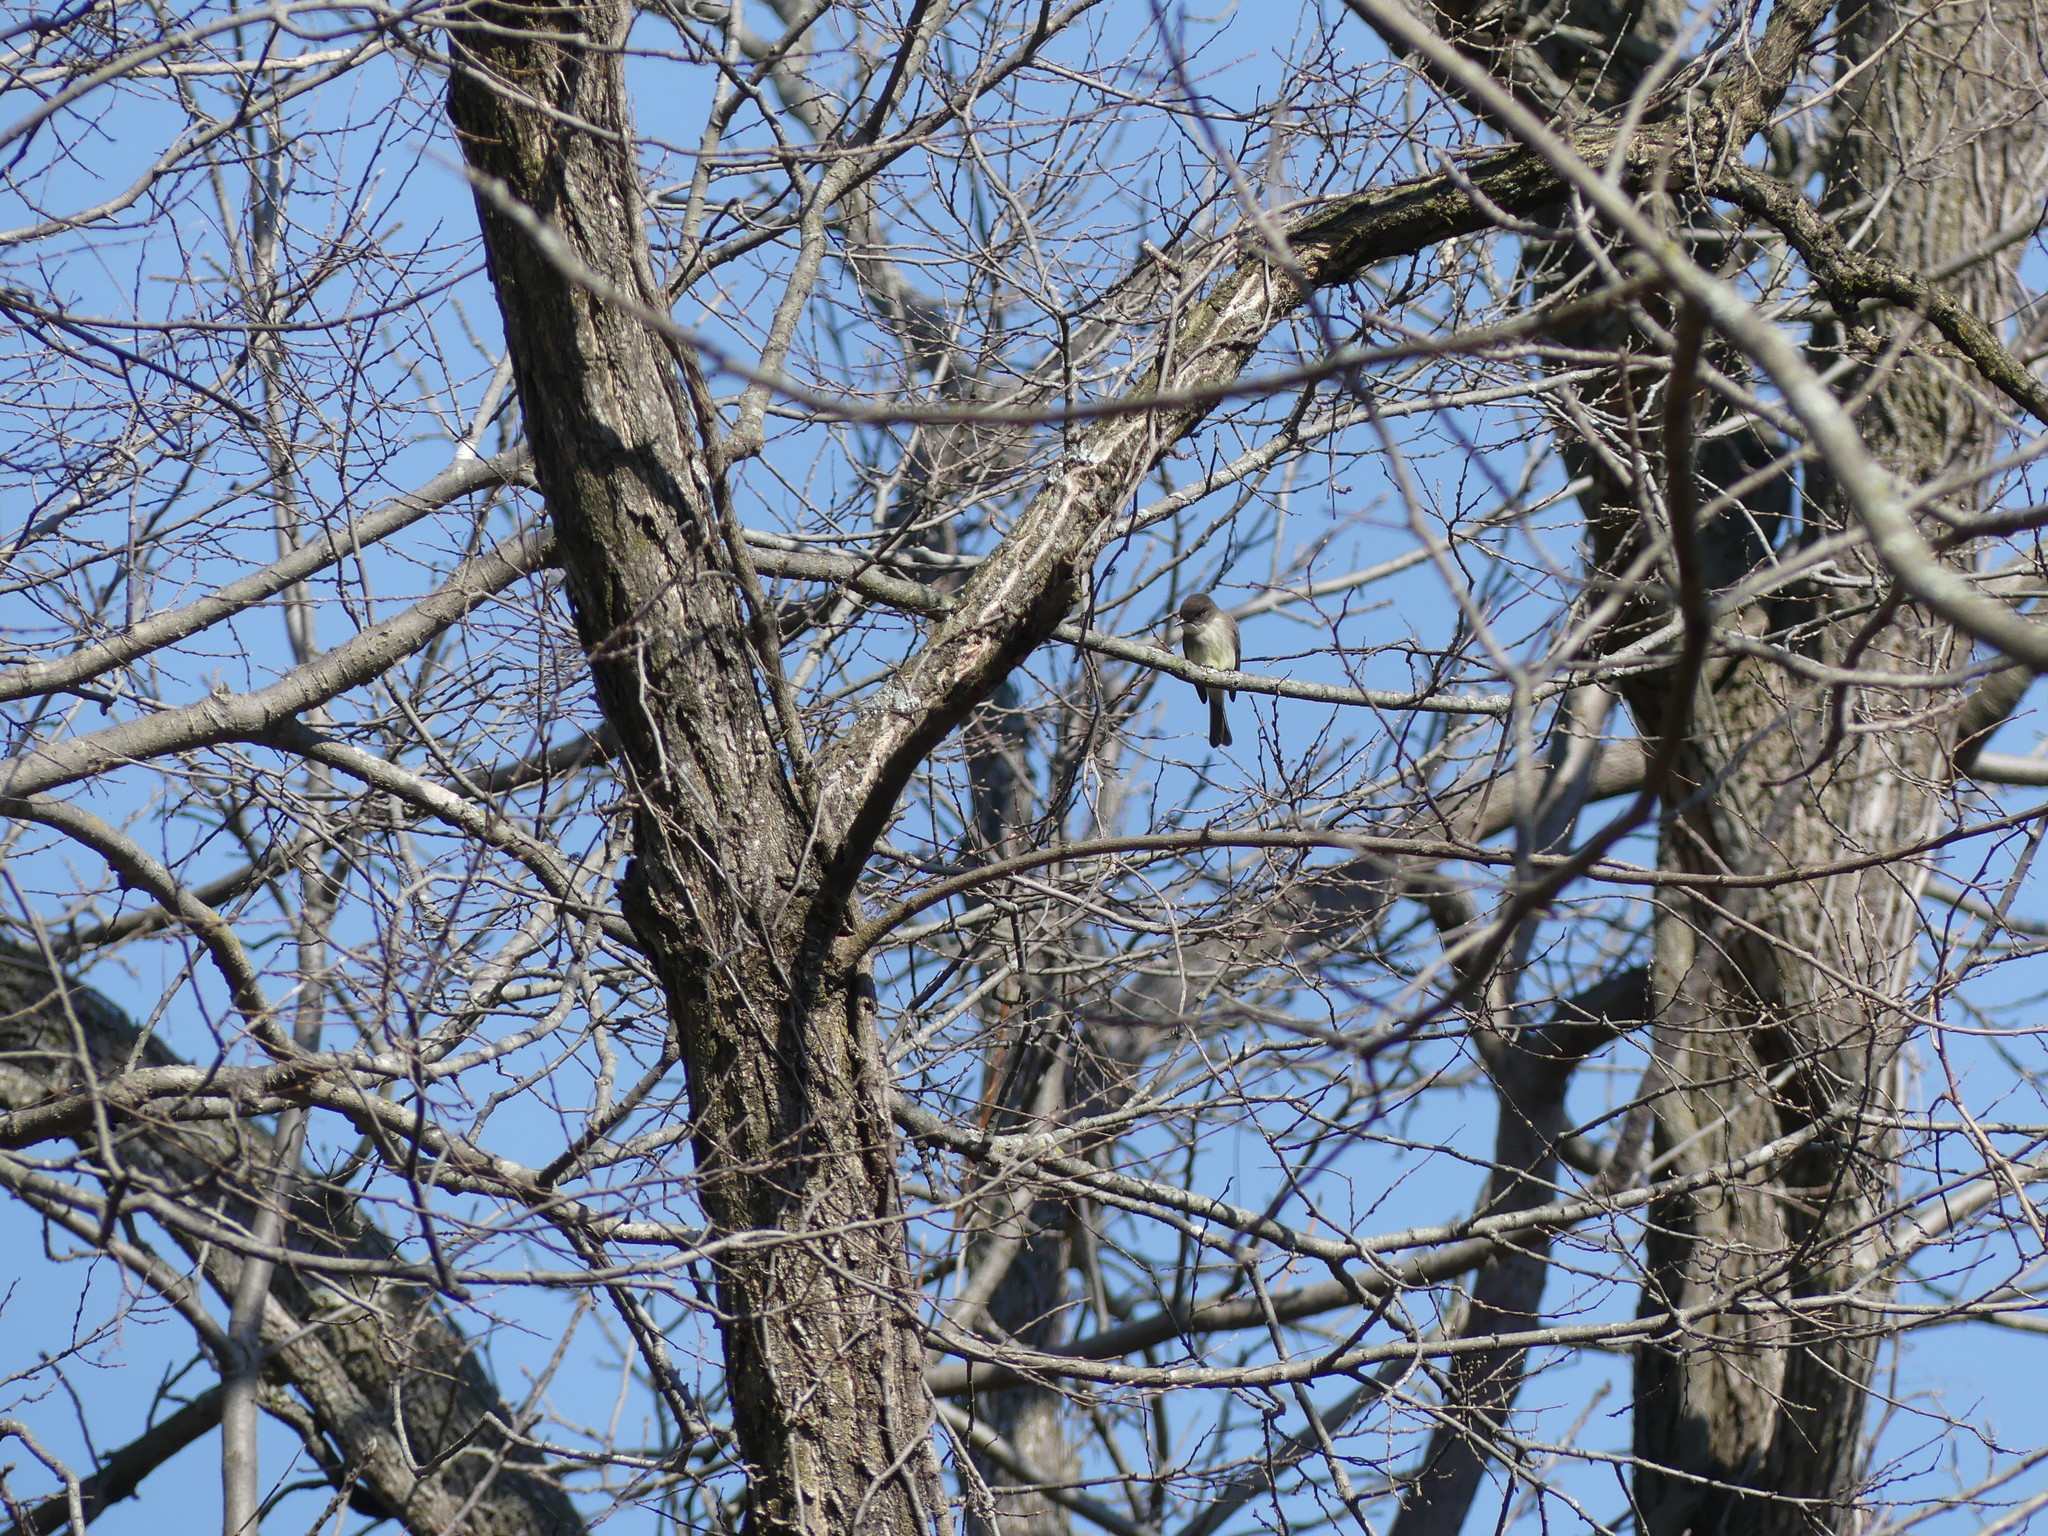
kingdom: Animalia
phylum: Chordata
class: Aves
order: Passeriformes
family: Tyrannidae
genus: Sayornis
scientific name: Sayornis phoebe
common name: Eastern phoebe
